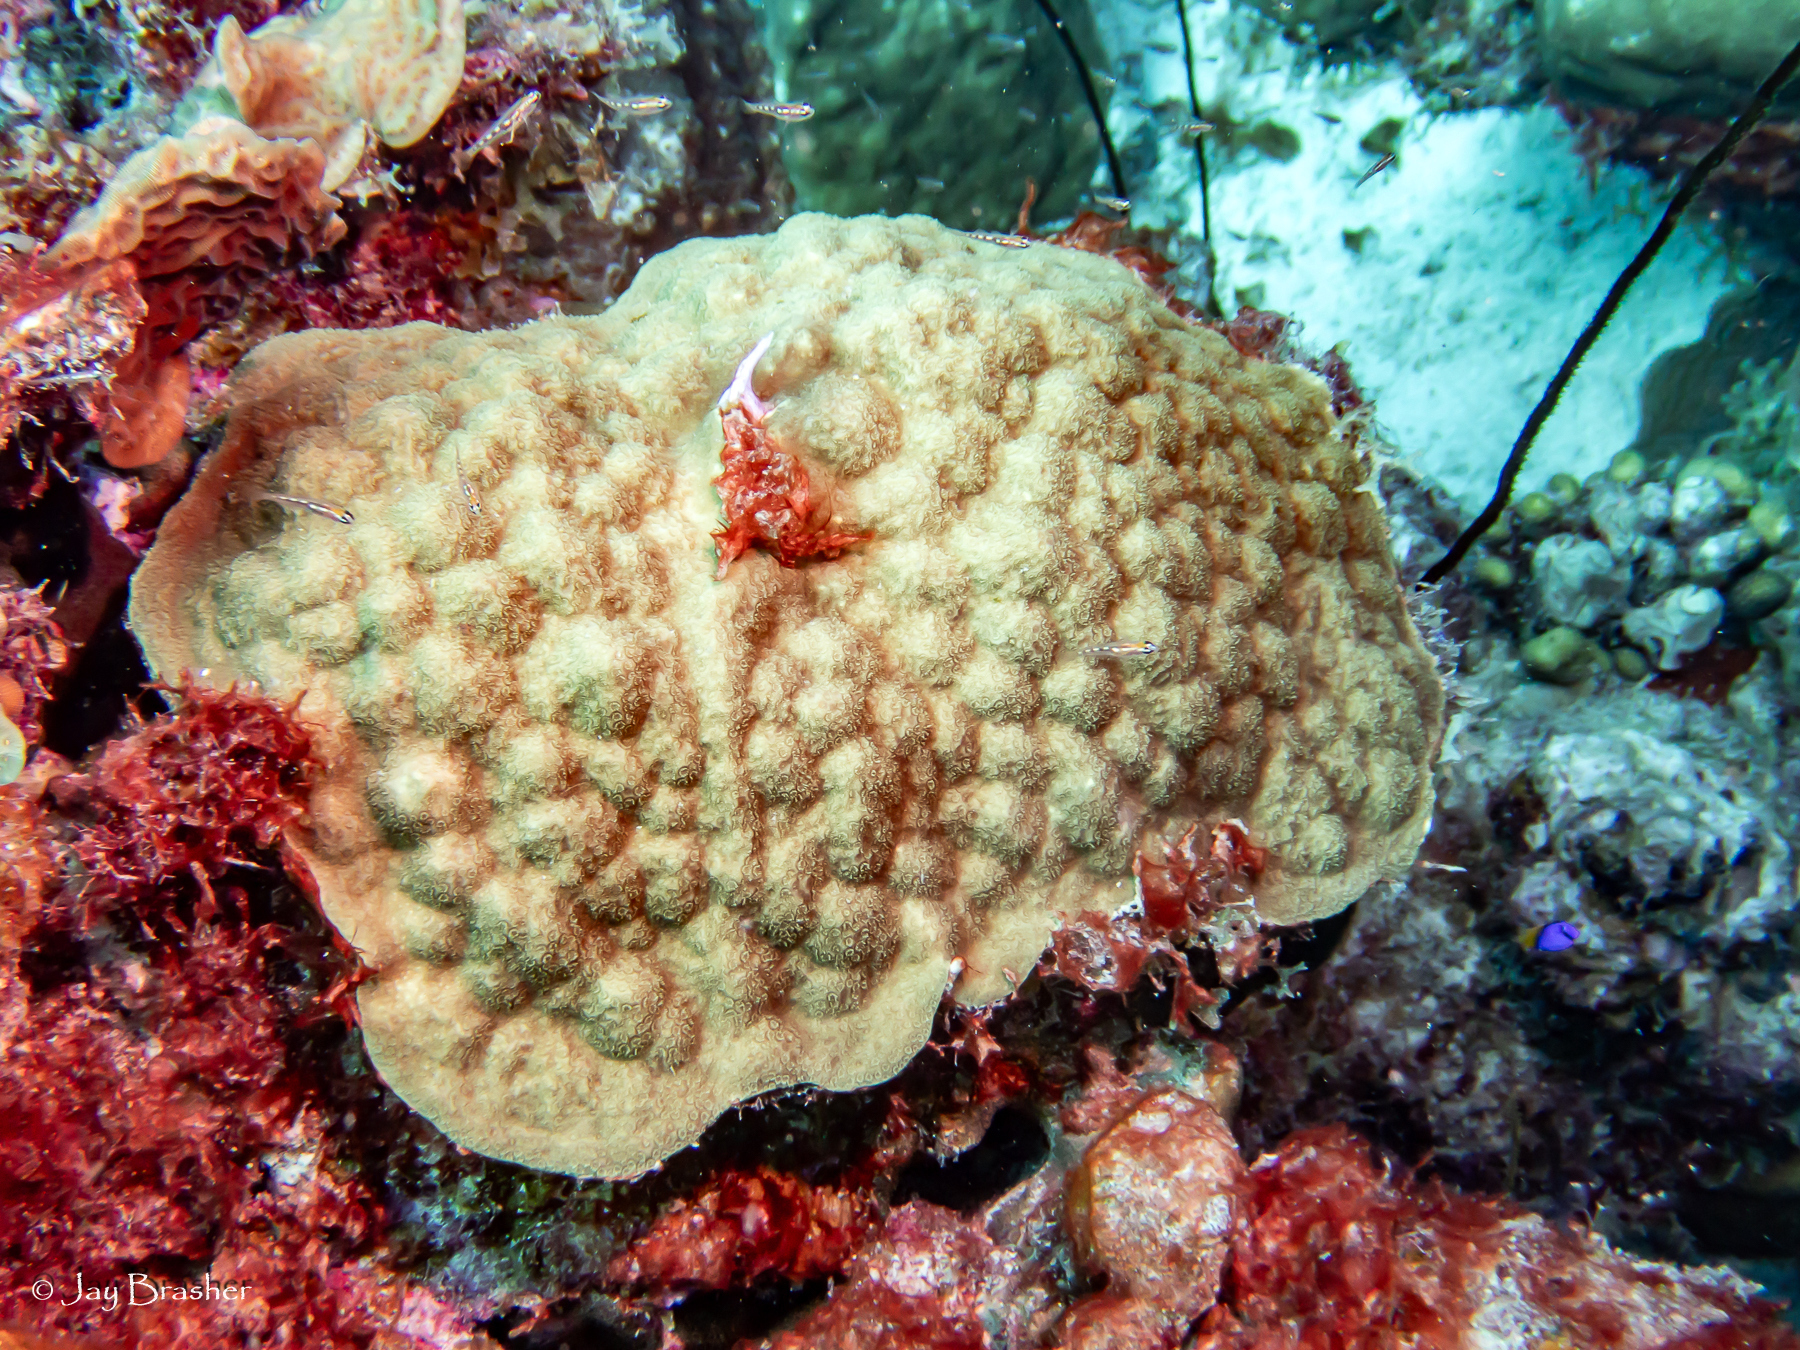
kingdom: Animalia
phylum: Cnidaria
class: Anthozoa
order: Scleractinia
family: Poritidae
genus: Porites
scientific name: Porites astreoides
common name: Mustard hill coral
